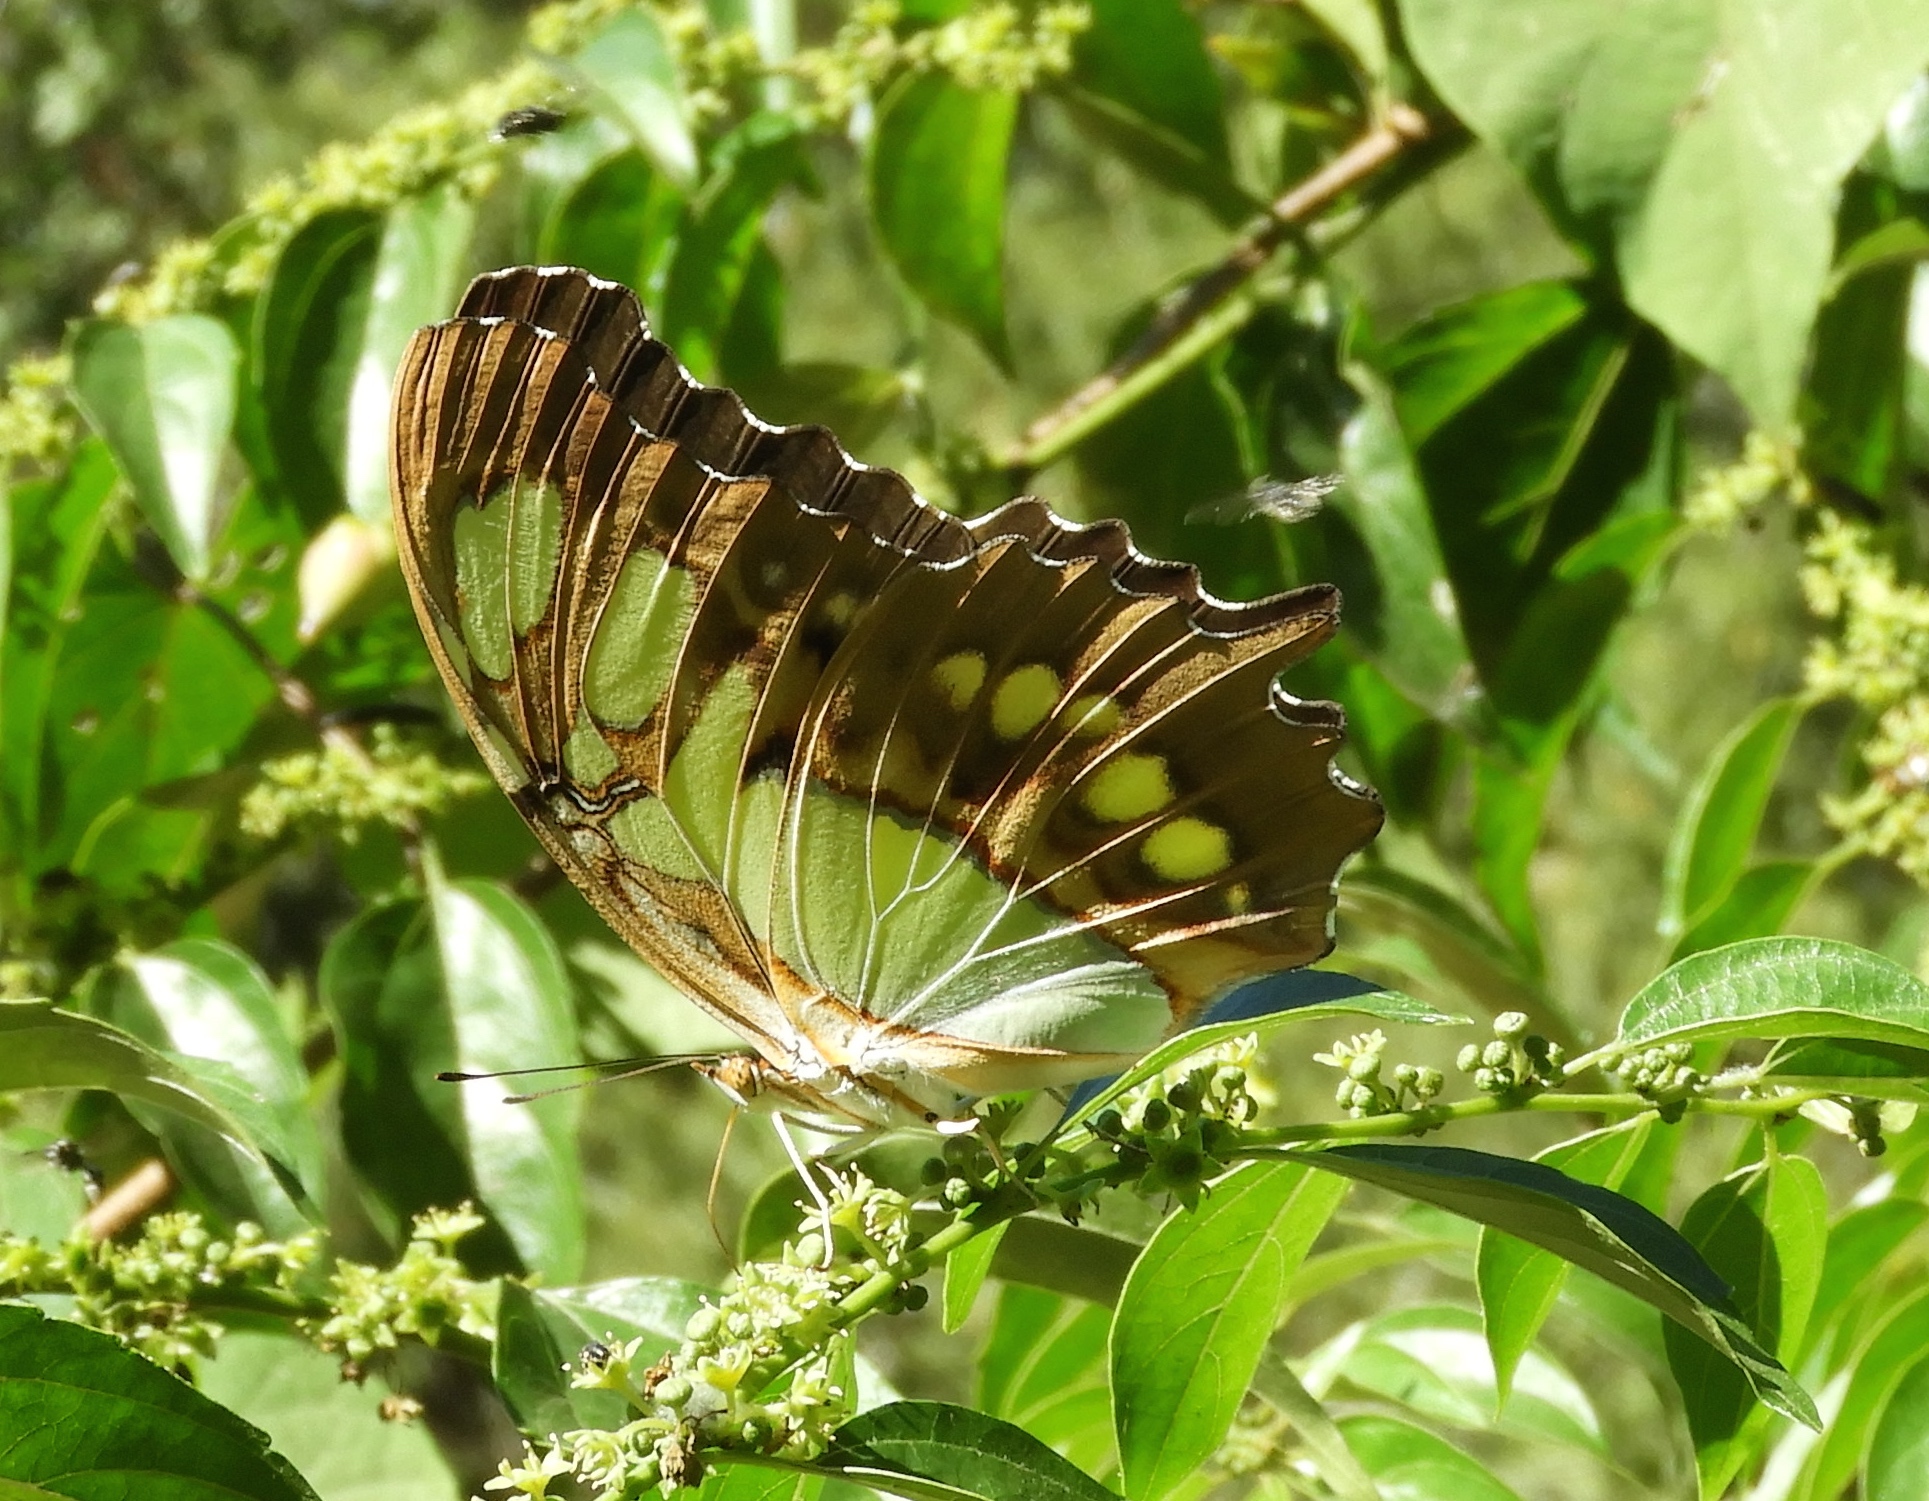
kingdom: Animalia
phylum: Arthropoda
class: Insecta
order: Lepidoptera
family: Nymphalidae
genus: Siproeta
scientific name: Siproeta stelenes
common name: Malachite
